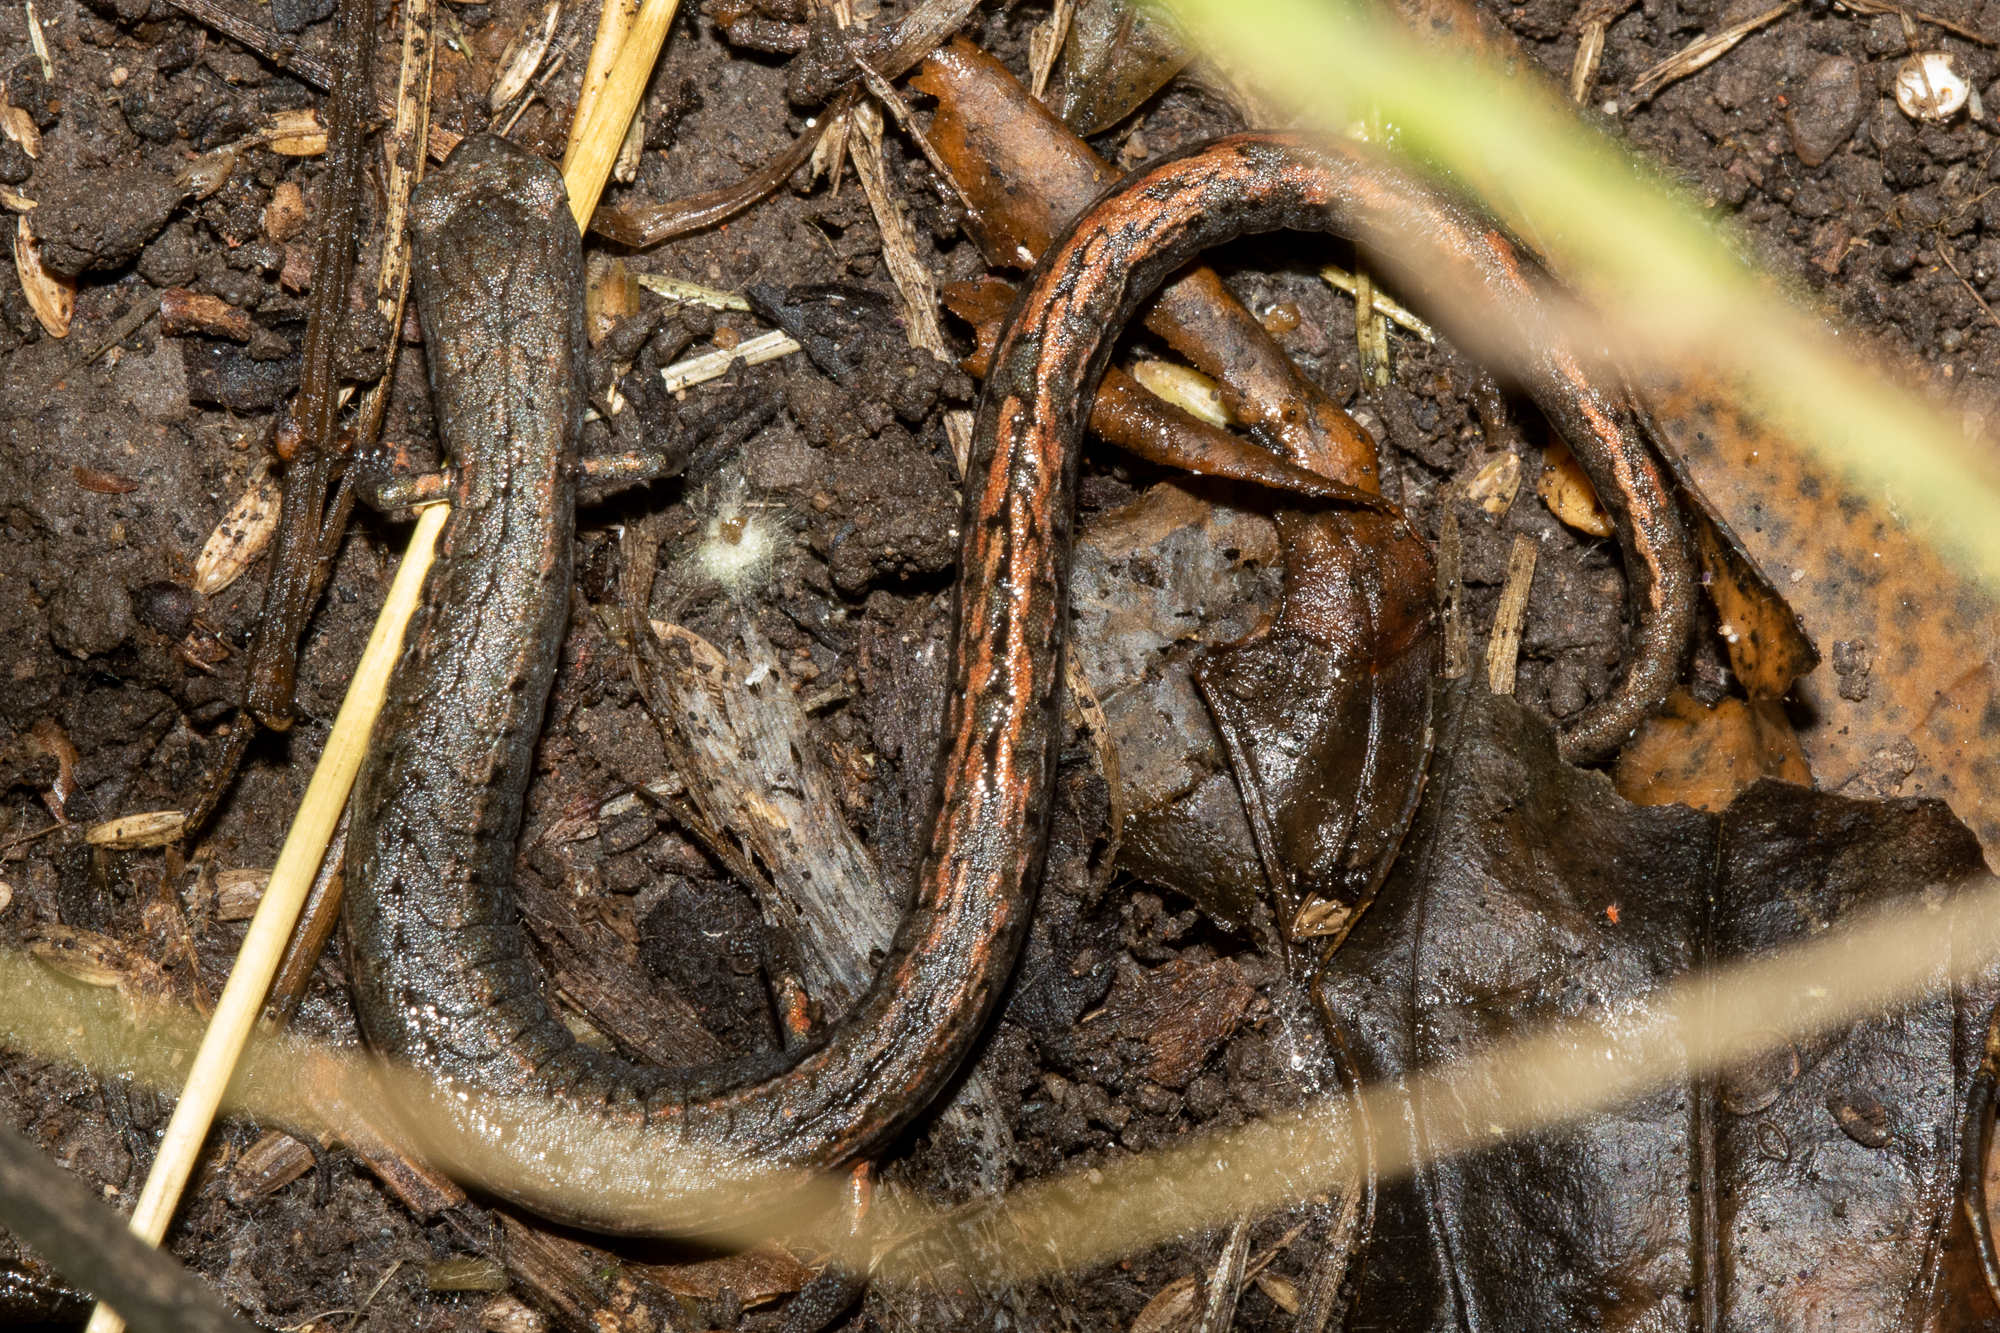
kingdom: Animalia
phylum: Chordata
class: Amphibia
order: Caudata
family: Plethodontidae
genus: Batrachoseps
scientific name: Batrachoseps attenuatus
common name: California slender salamander
